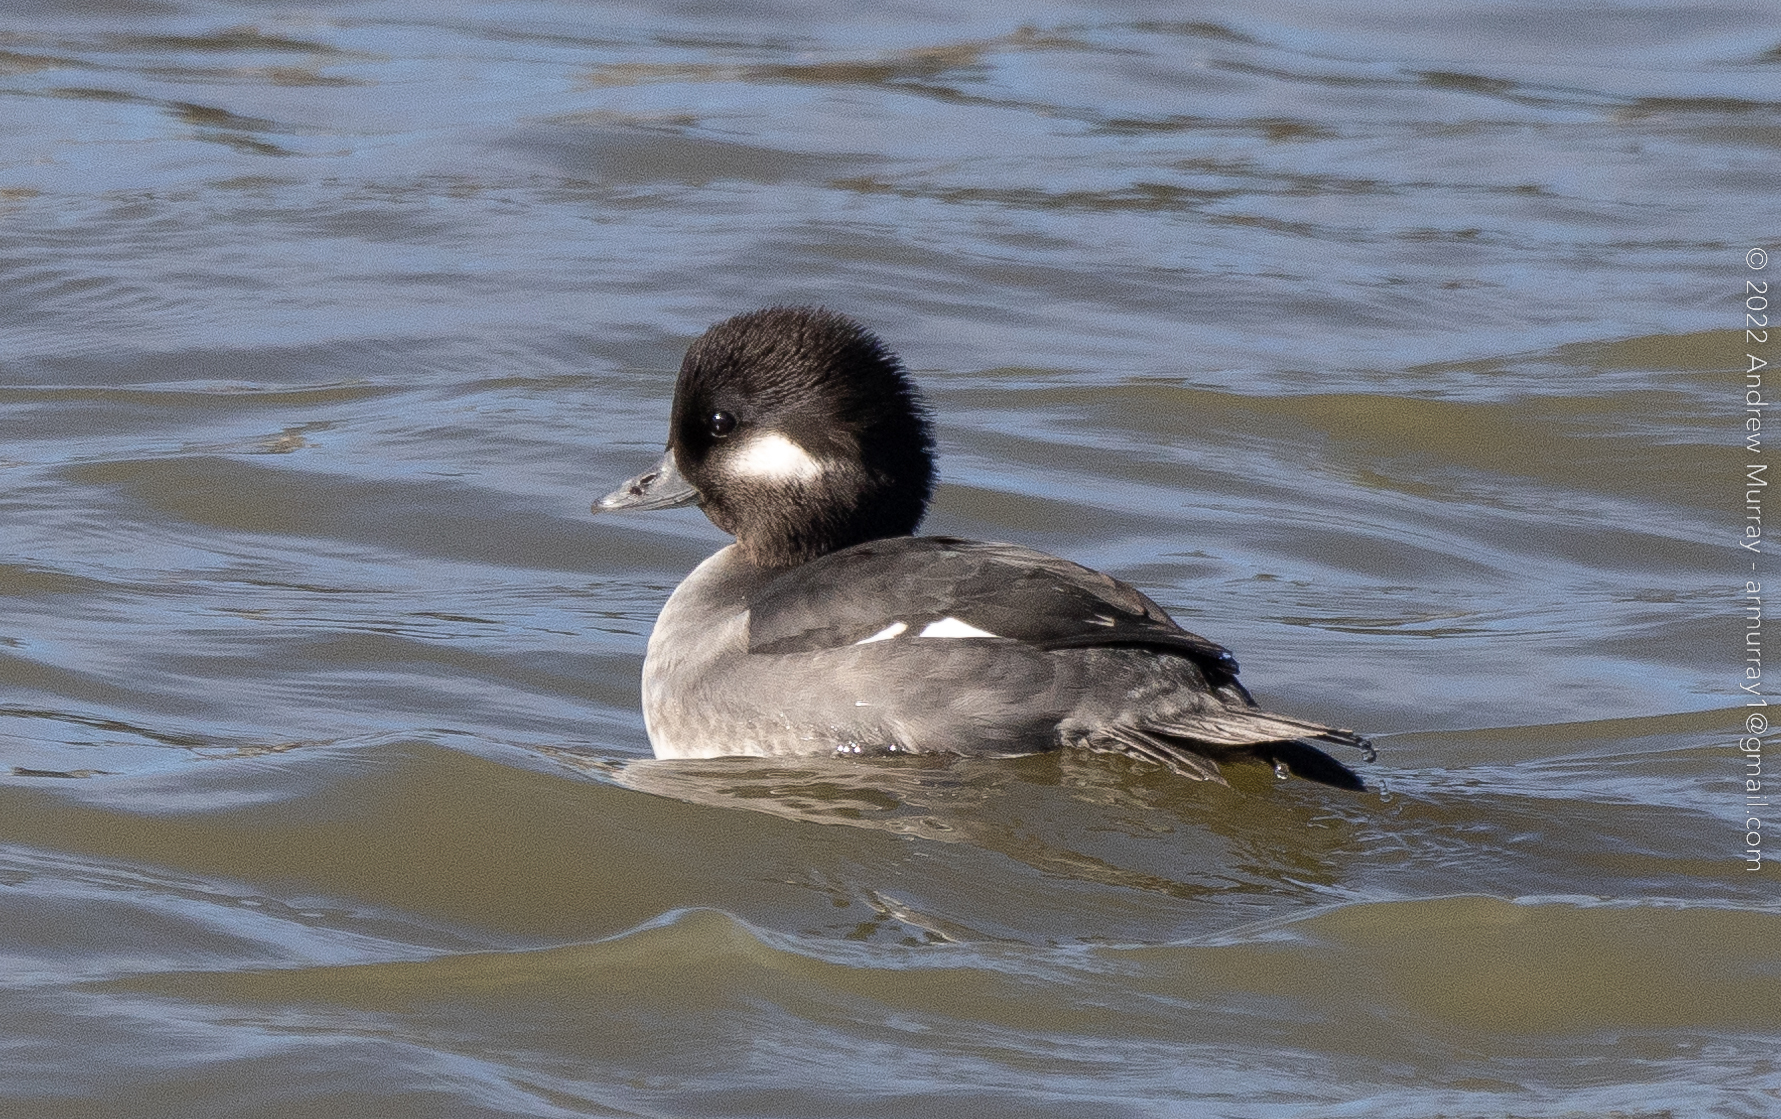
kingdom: Animalia
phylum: Chordata
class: Aves
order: Anseriformes
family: Anatidae
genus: Bucephala
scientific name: Bucephala albeola
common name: Bufflehead
